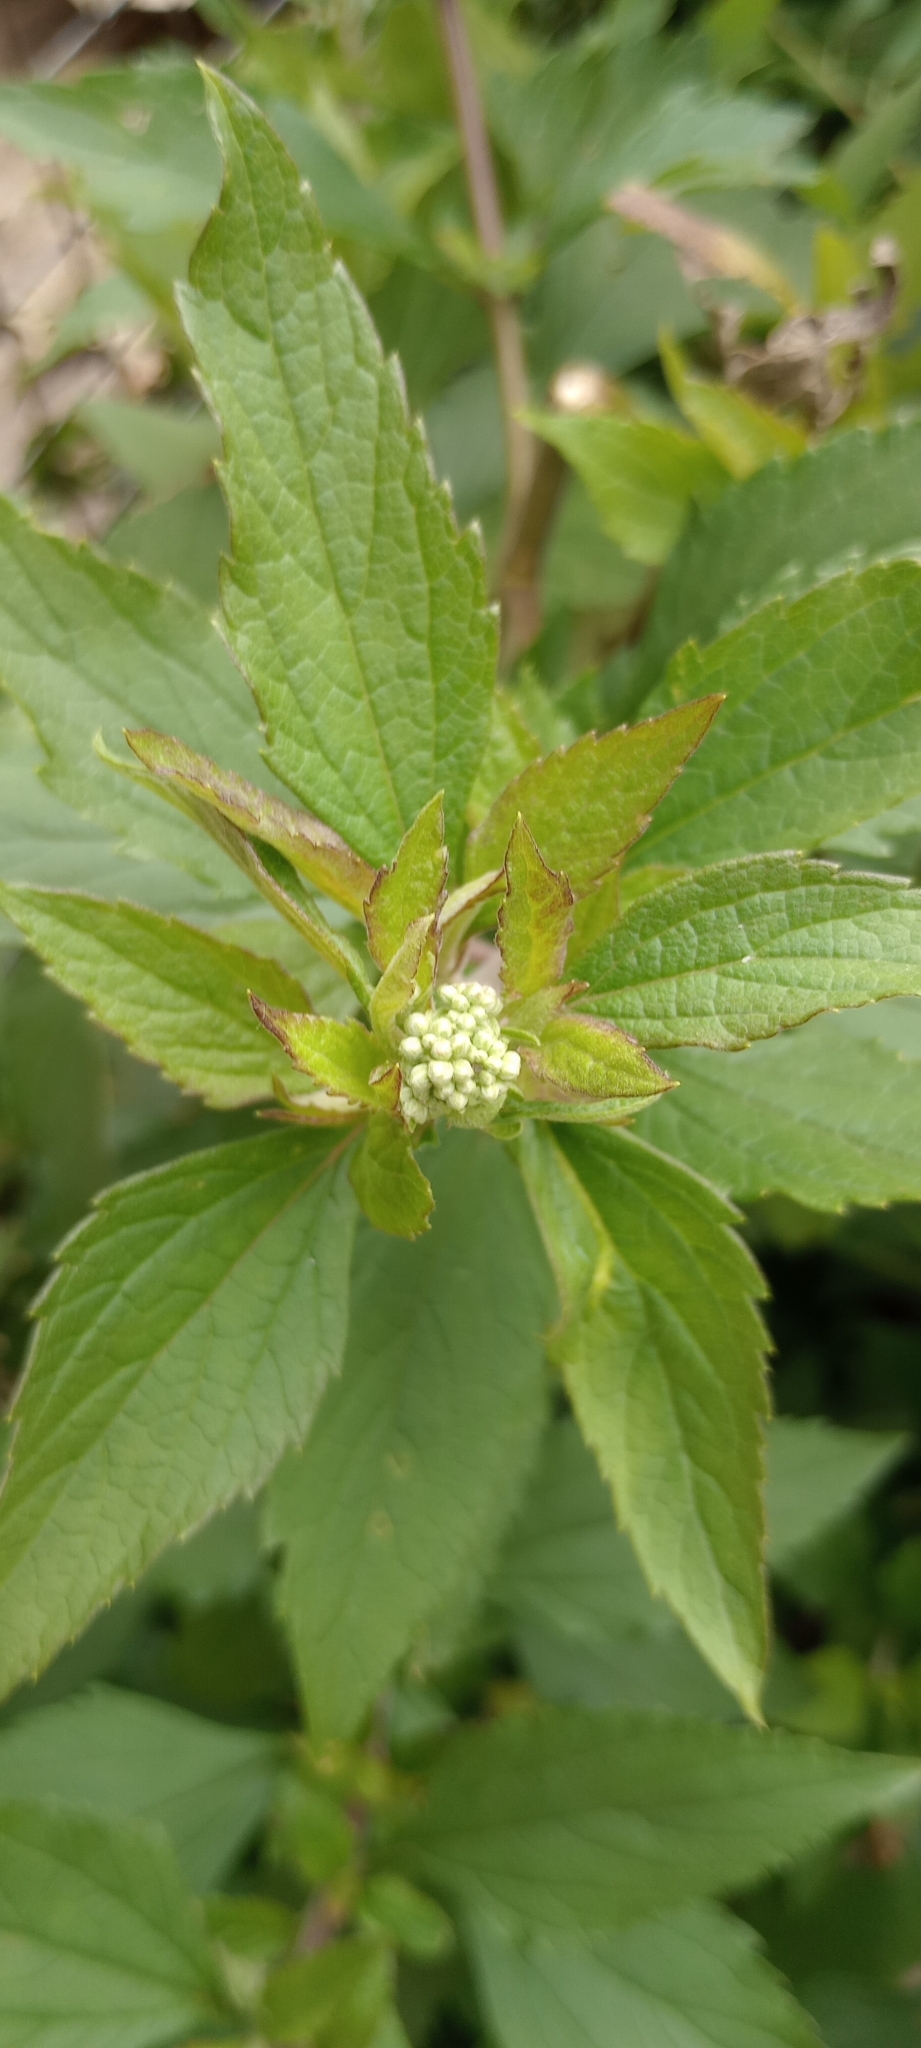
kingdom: Plantae
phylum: Tracheophyta
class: Magnoliopsida
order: Asterales
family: Asteraceae
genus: Austroeupatorium
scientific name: Austroeupatorium inulifolium
